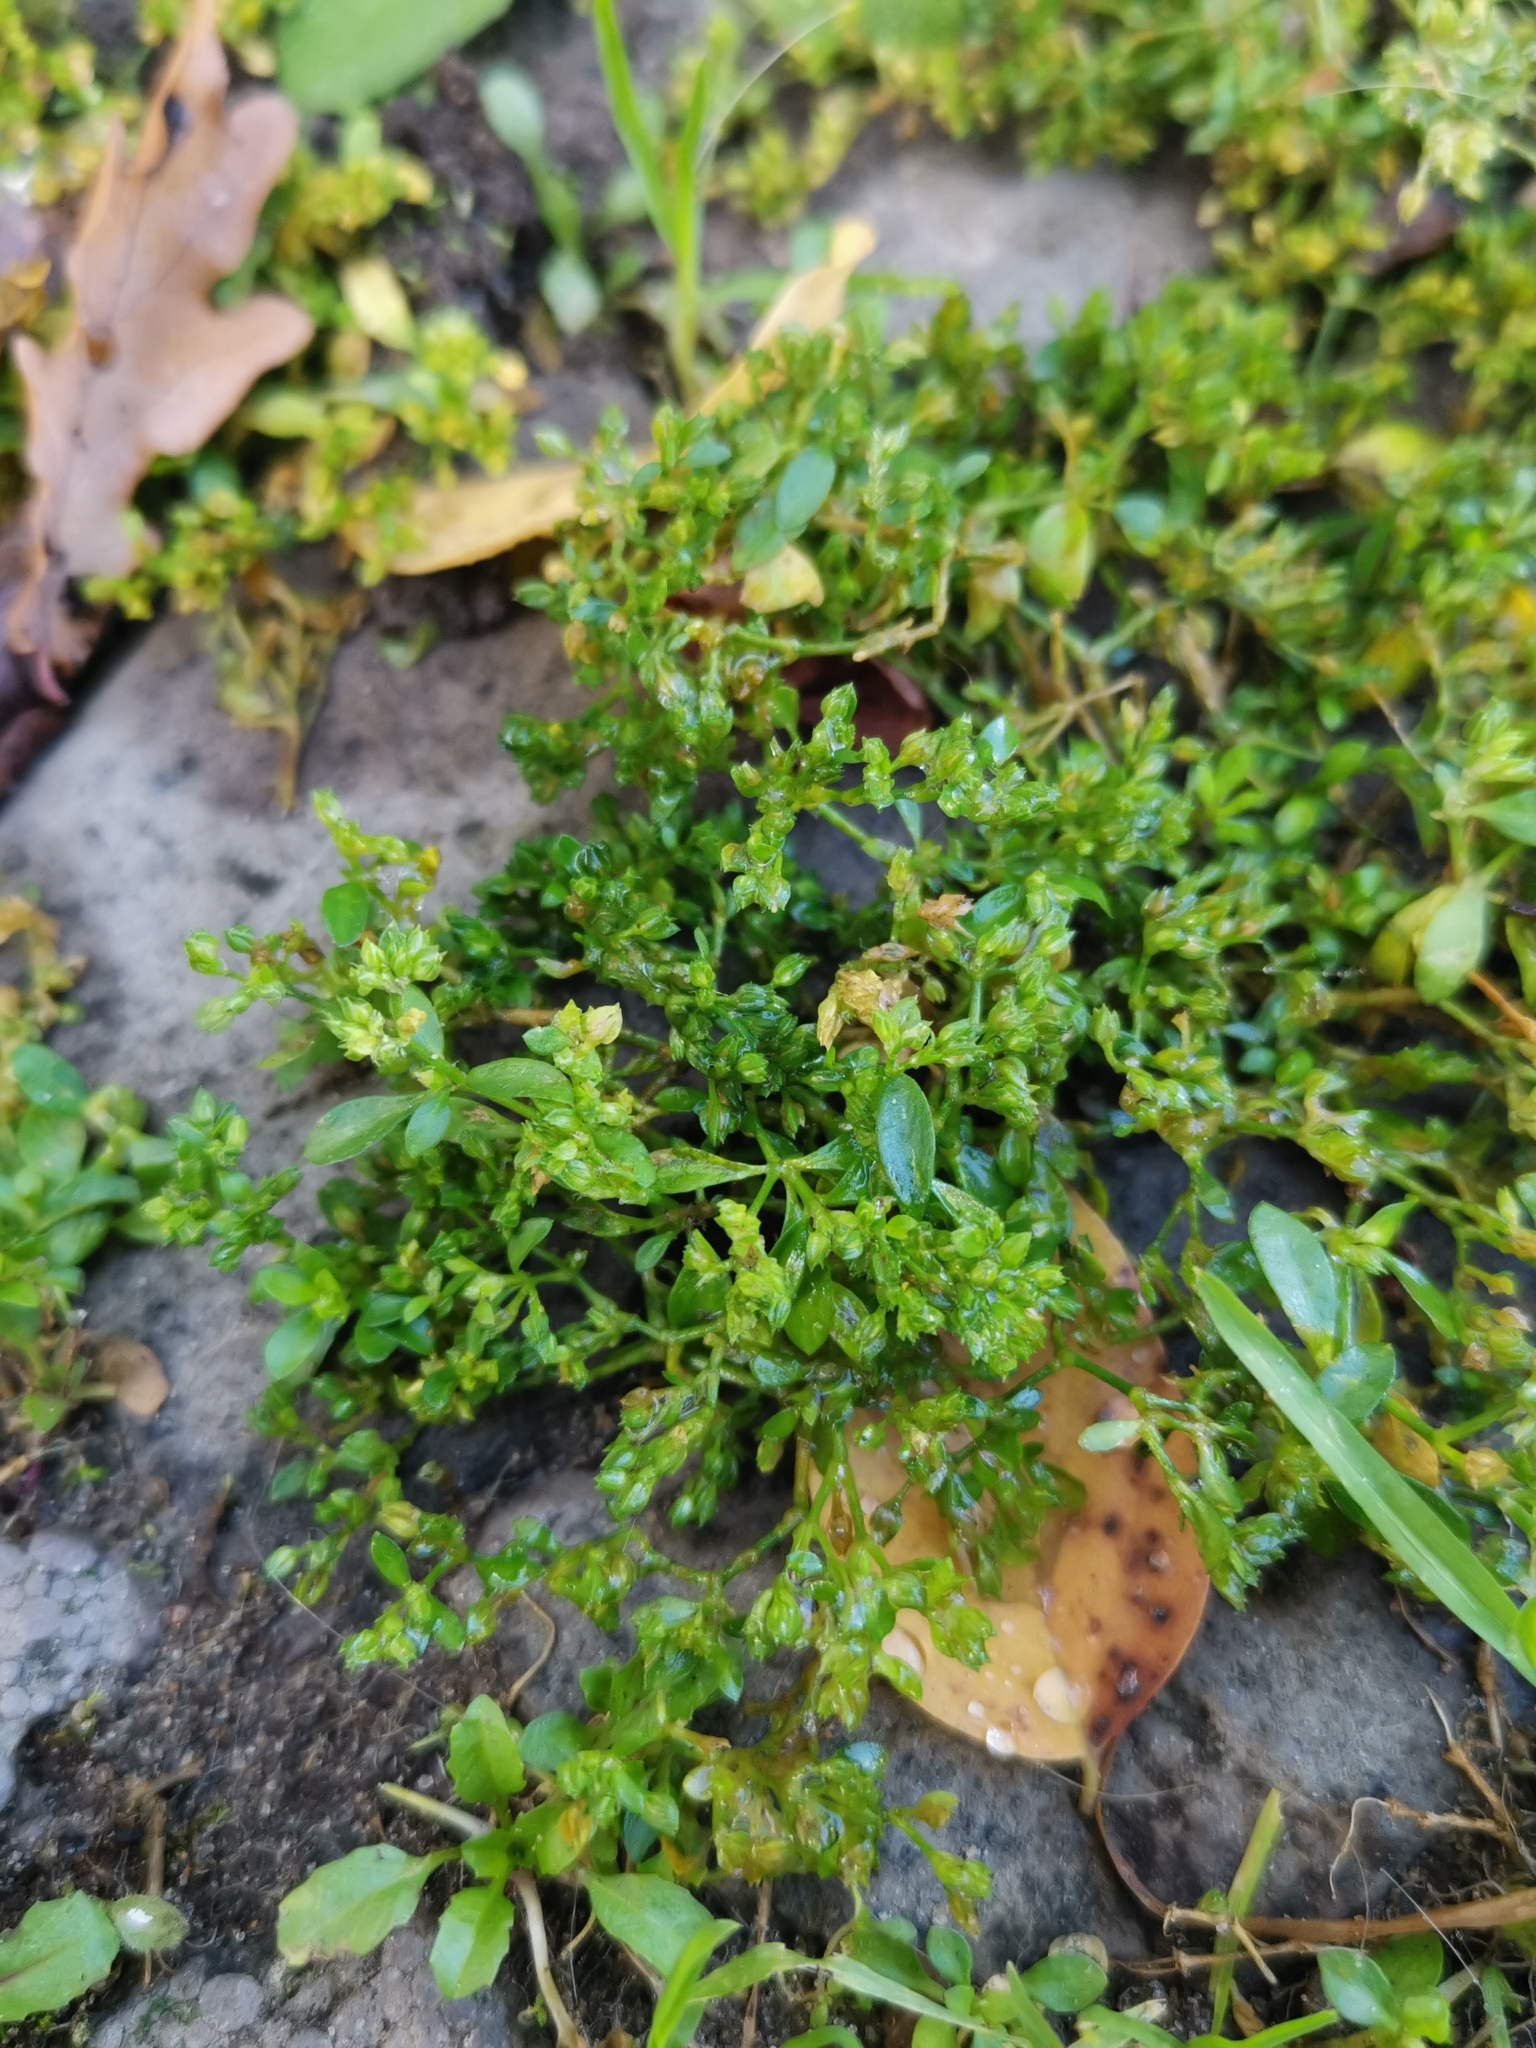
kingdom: Plantae
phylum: Tracheophyta
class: Magnoliopsida
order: Caryophyllales
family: Caryophyllaceae
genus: Polycarpon
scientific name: Polycarpon tetraphyllum
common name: Four-leaved all-seed
